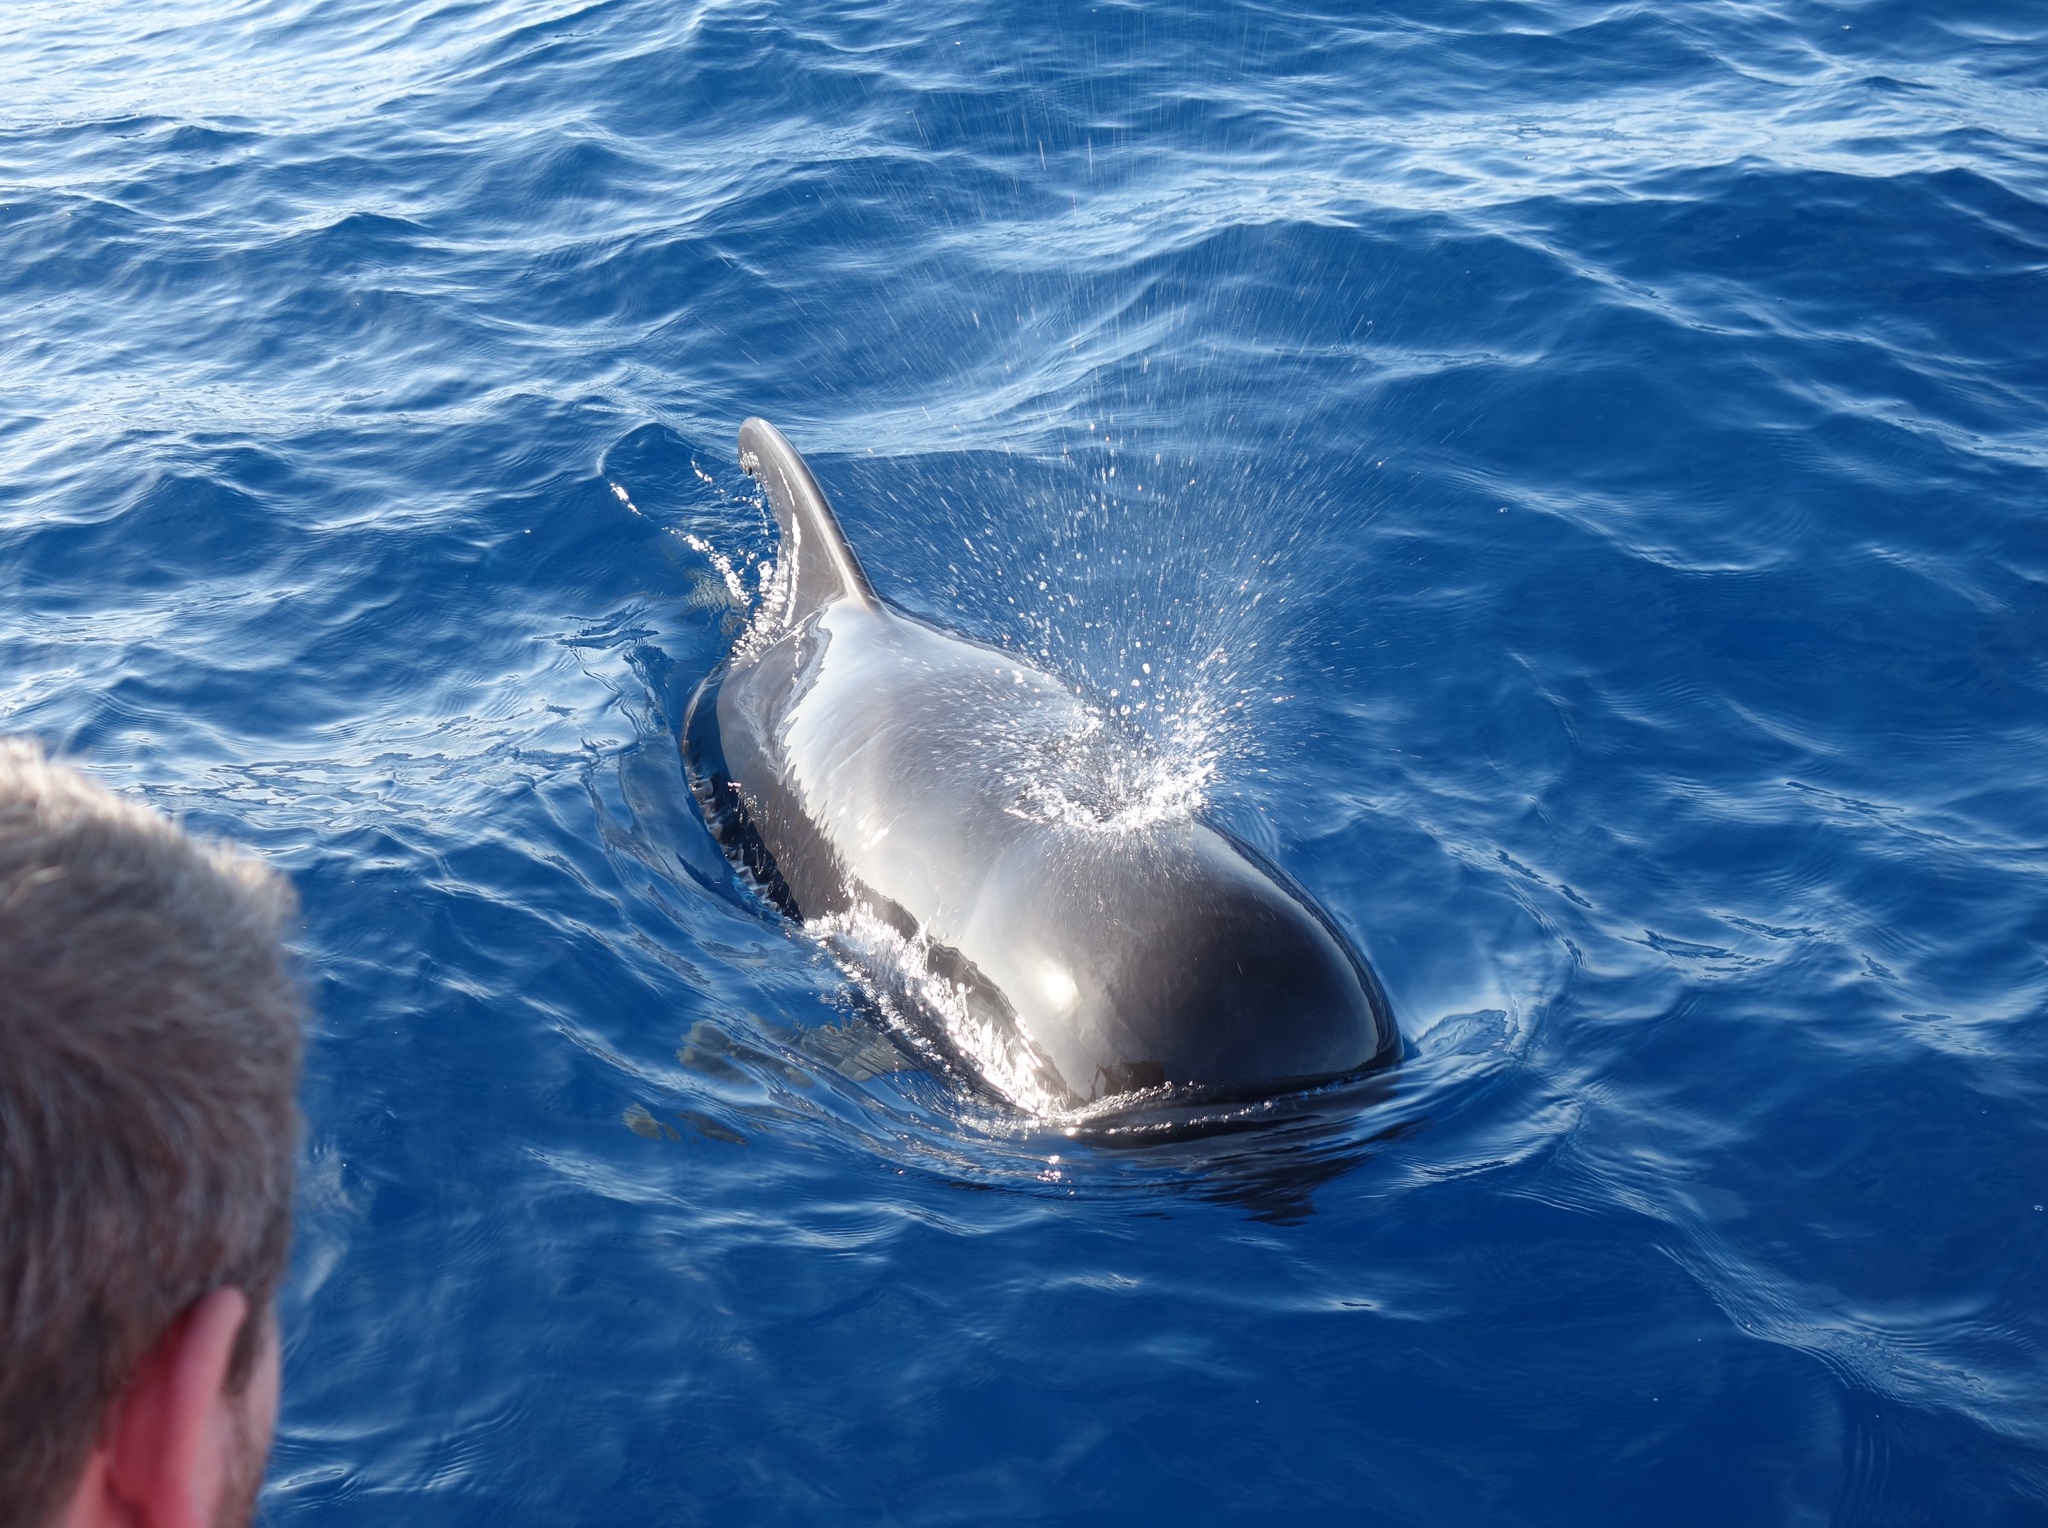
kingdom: Animalia
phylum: Chordata
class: Mammalia
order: Cetacea
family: Delphinidae
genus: Globicephala
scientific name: Globicephala macrorhynchus
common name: Short-finned pilot whale
